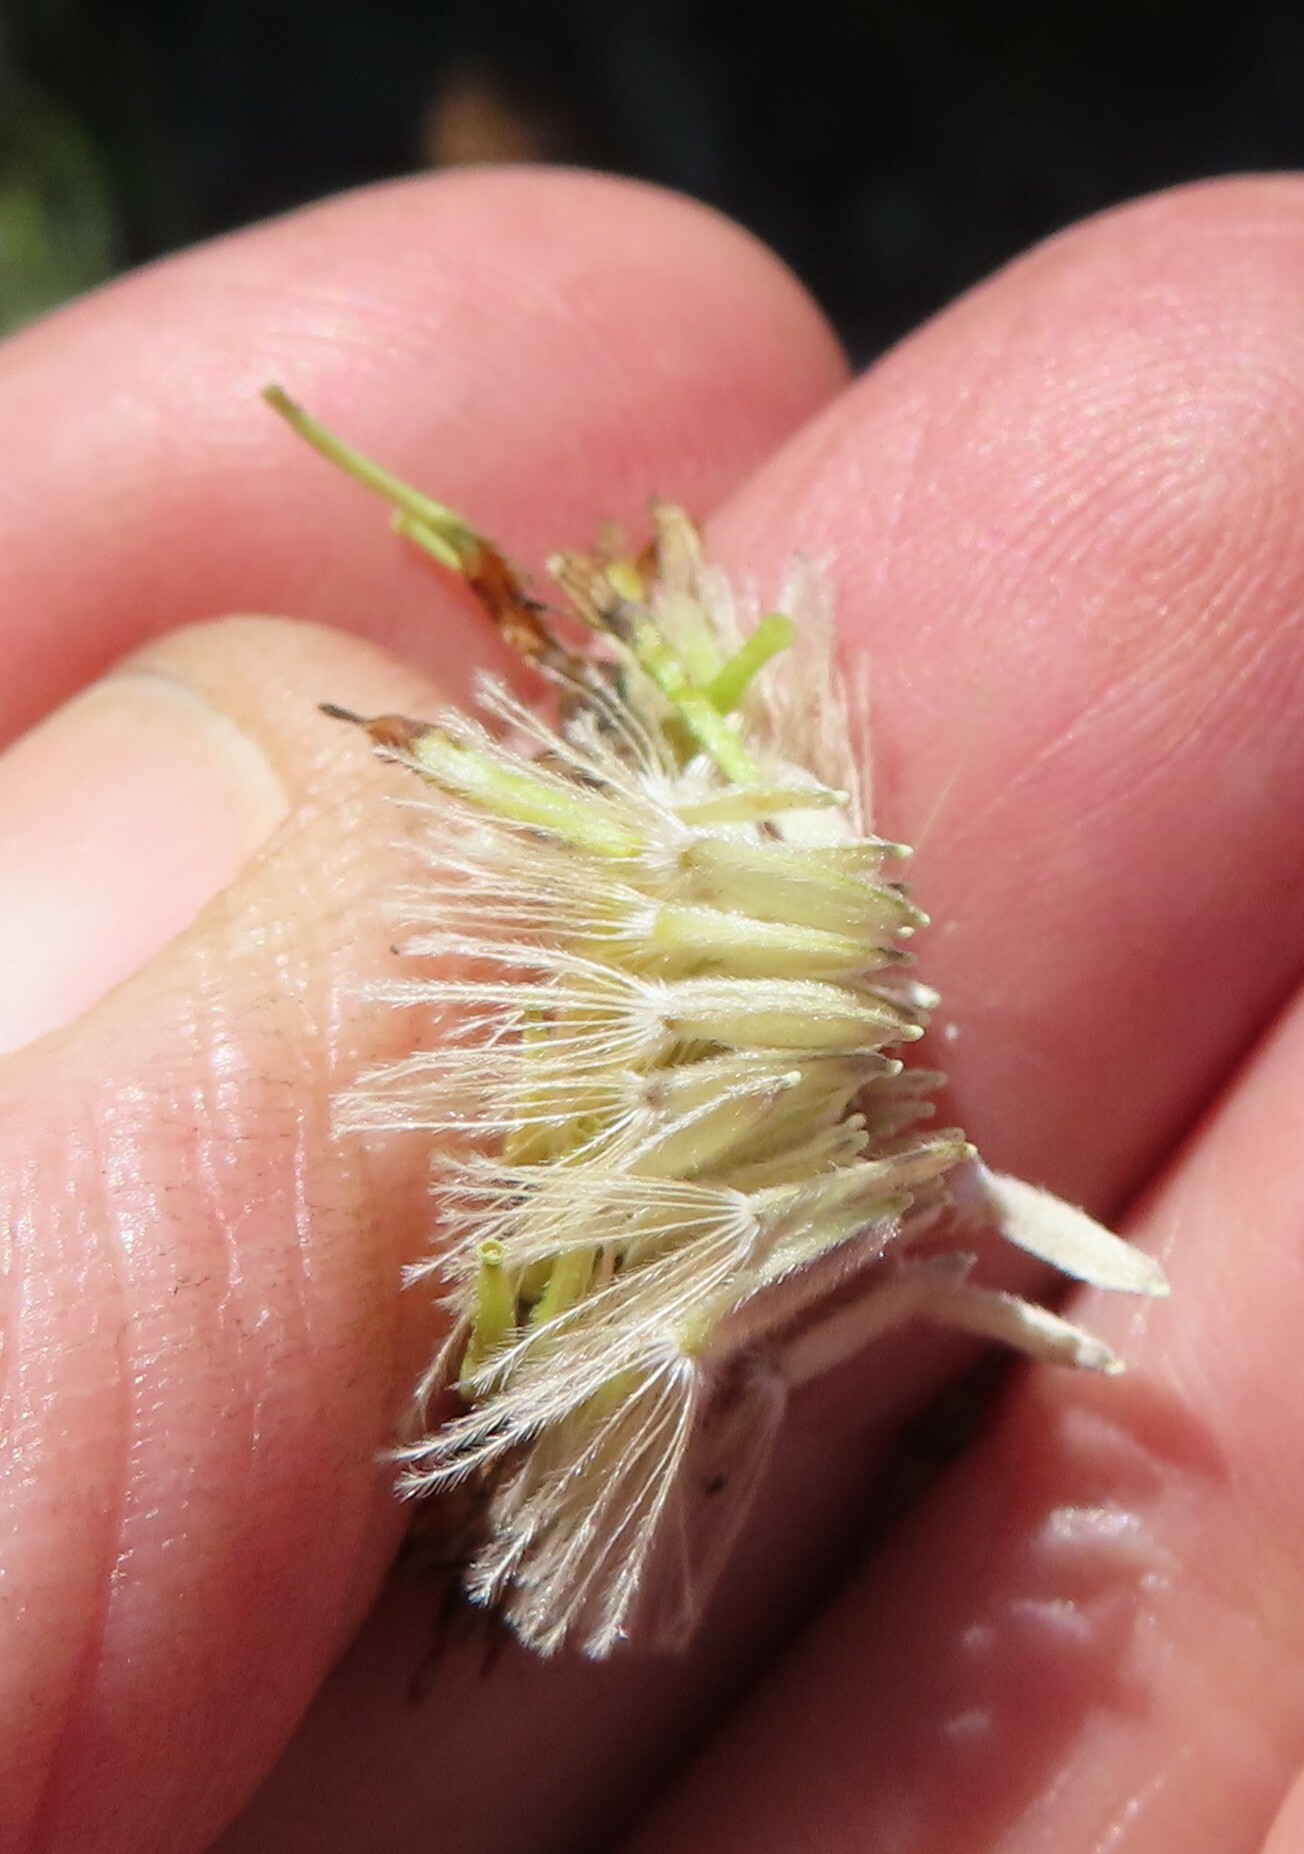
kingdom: Plantae
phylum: Tracheophyta
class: Magnoliopsida
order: Asterales
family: Asteraceae
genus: Mairia
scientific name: Mairia robusta
